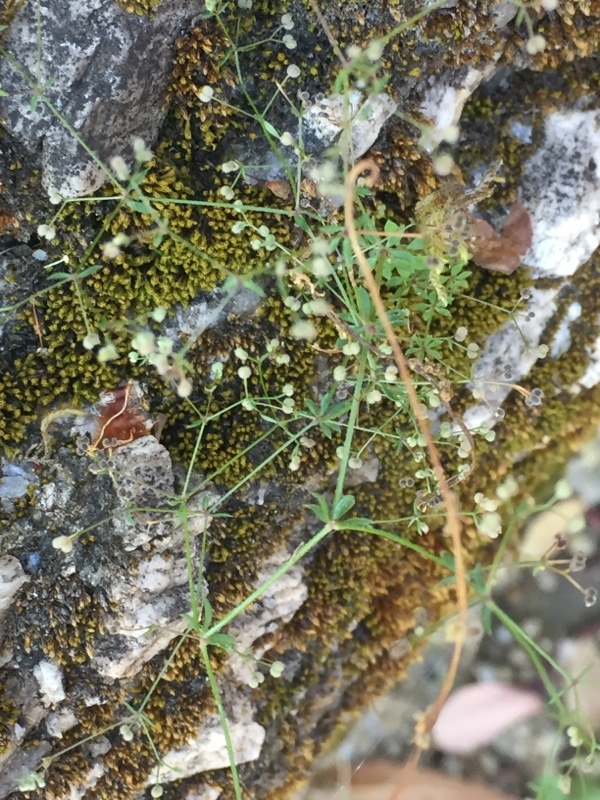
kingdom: Plantae
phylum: Tracheophyta
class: Magnoliopsida
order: Gentianales
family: Rubiaceae
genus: Galium
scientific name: Galium parisiense
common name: Wall bedstraw
